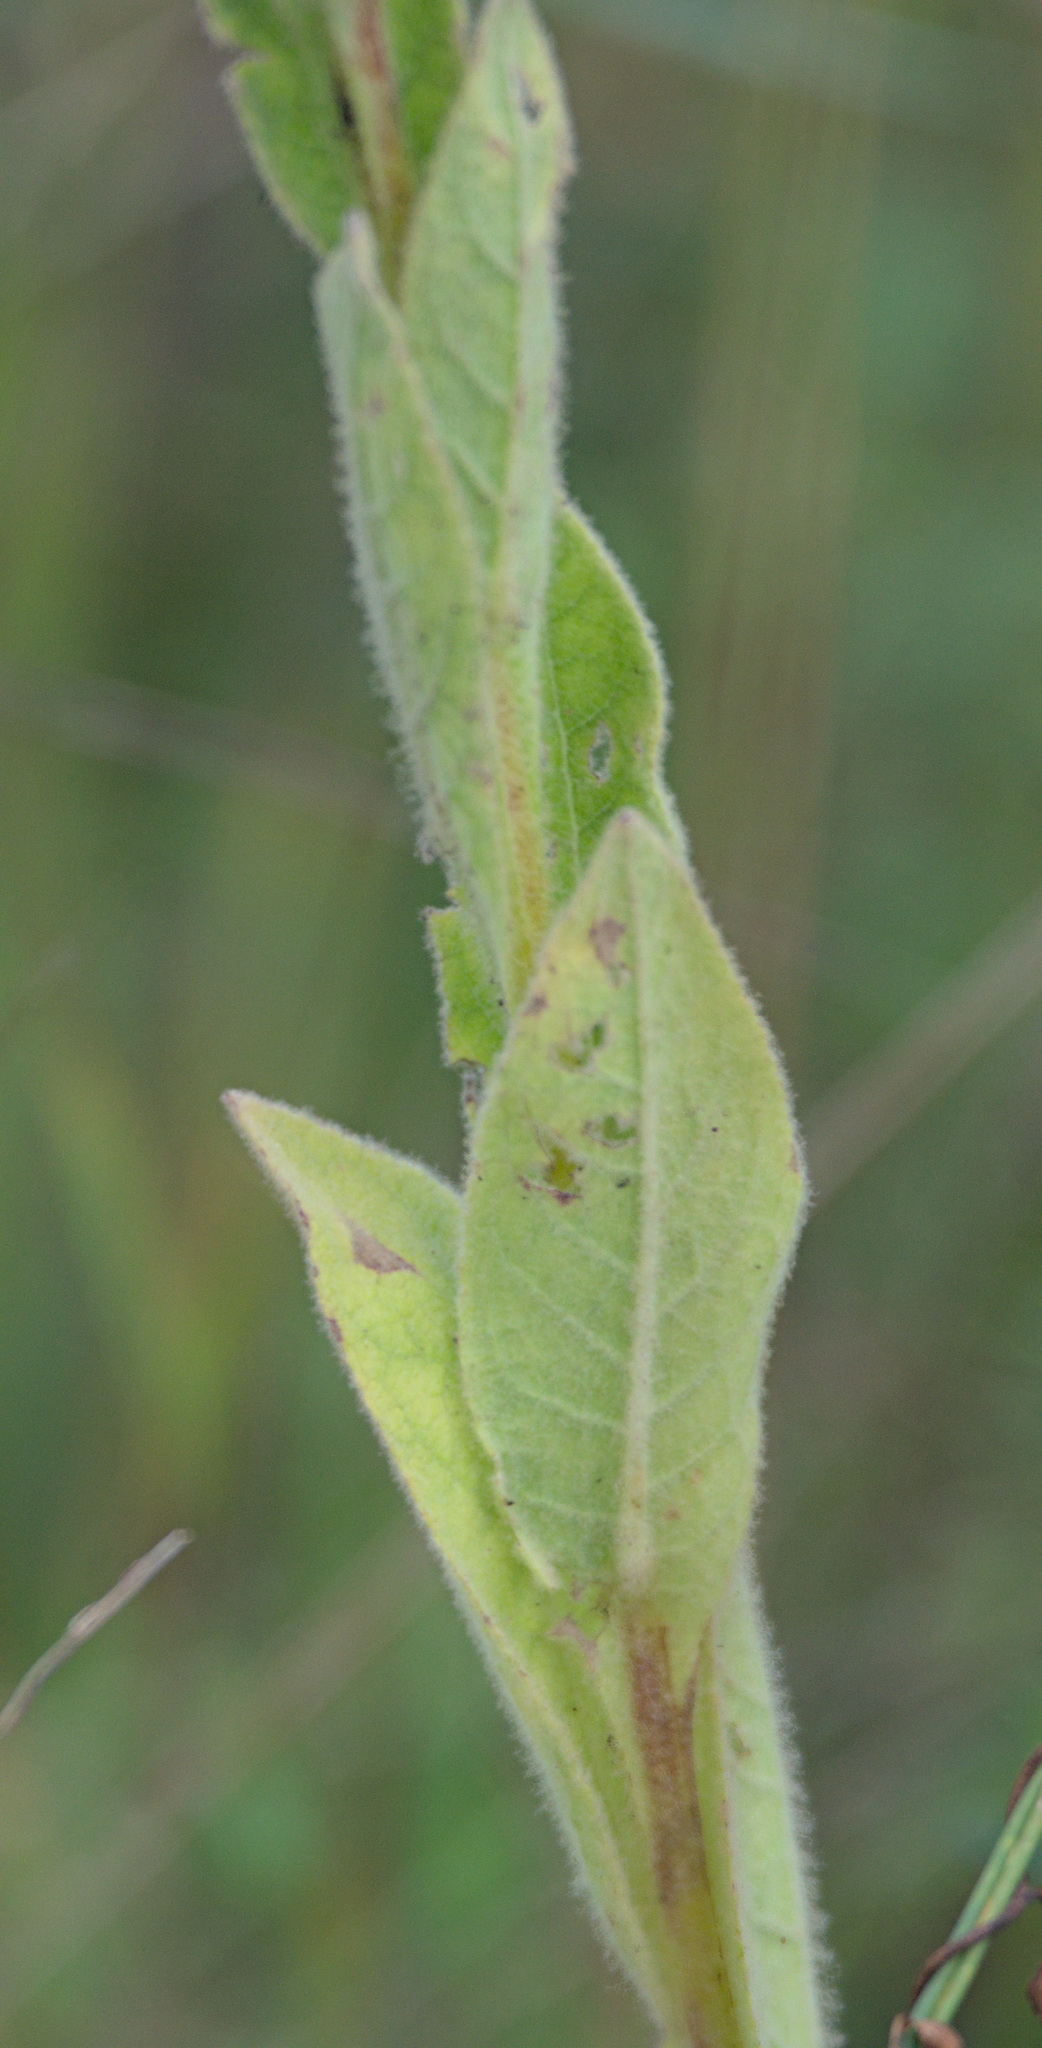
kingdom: Plantae
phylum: Tracheophyta
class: Magnoliopsida
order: Lamiales
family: Scrophulariaceae
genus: Verbascum
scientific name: Verbascum thapsus
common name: Common mullein
